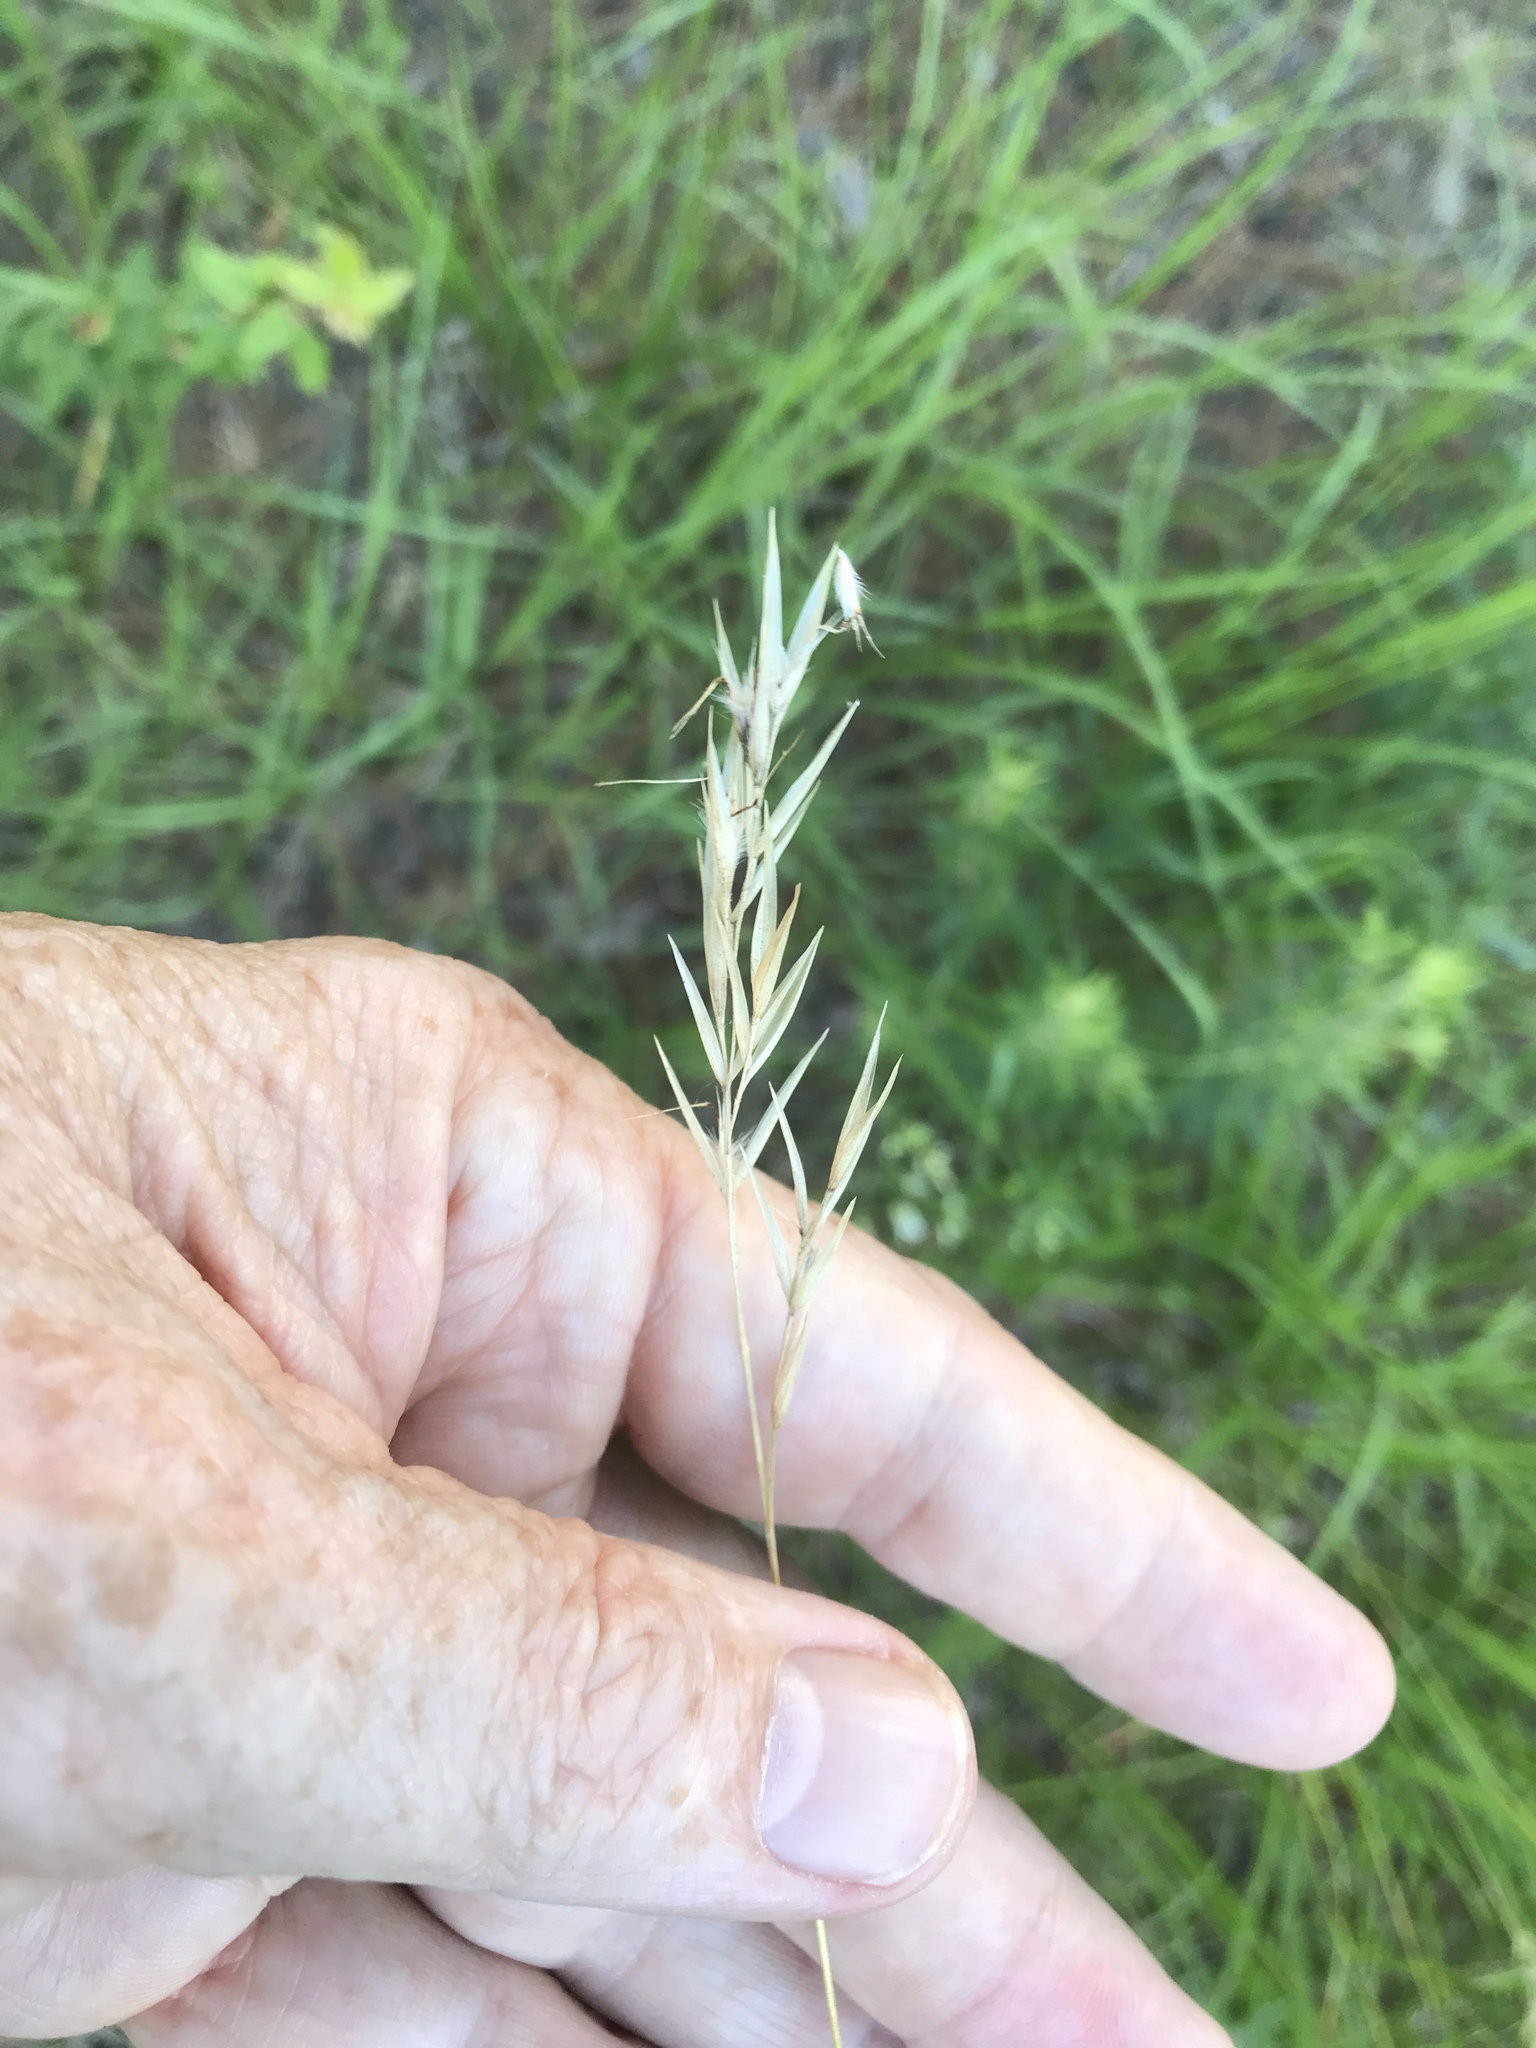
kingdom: Plantae
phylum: Tracheophyta
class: Liliopsida
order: Poales
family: Poaceae
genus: Danthonia
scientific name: Danthonia sericea
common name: Downy danthonia
